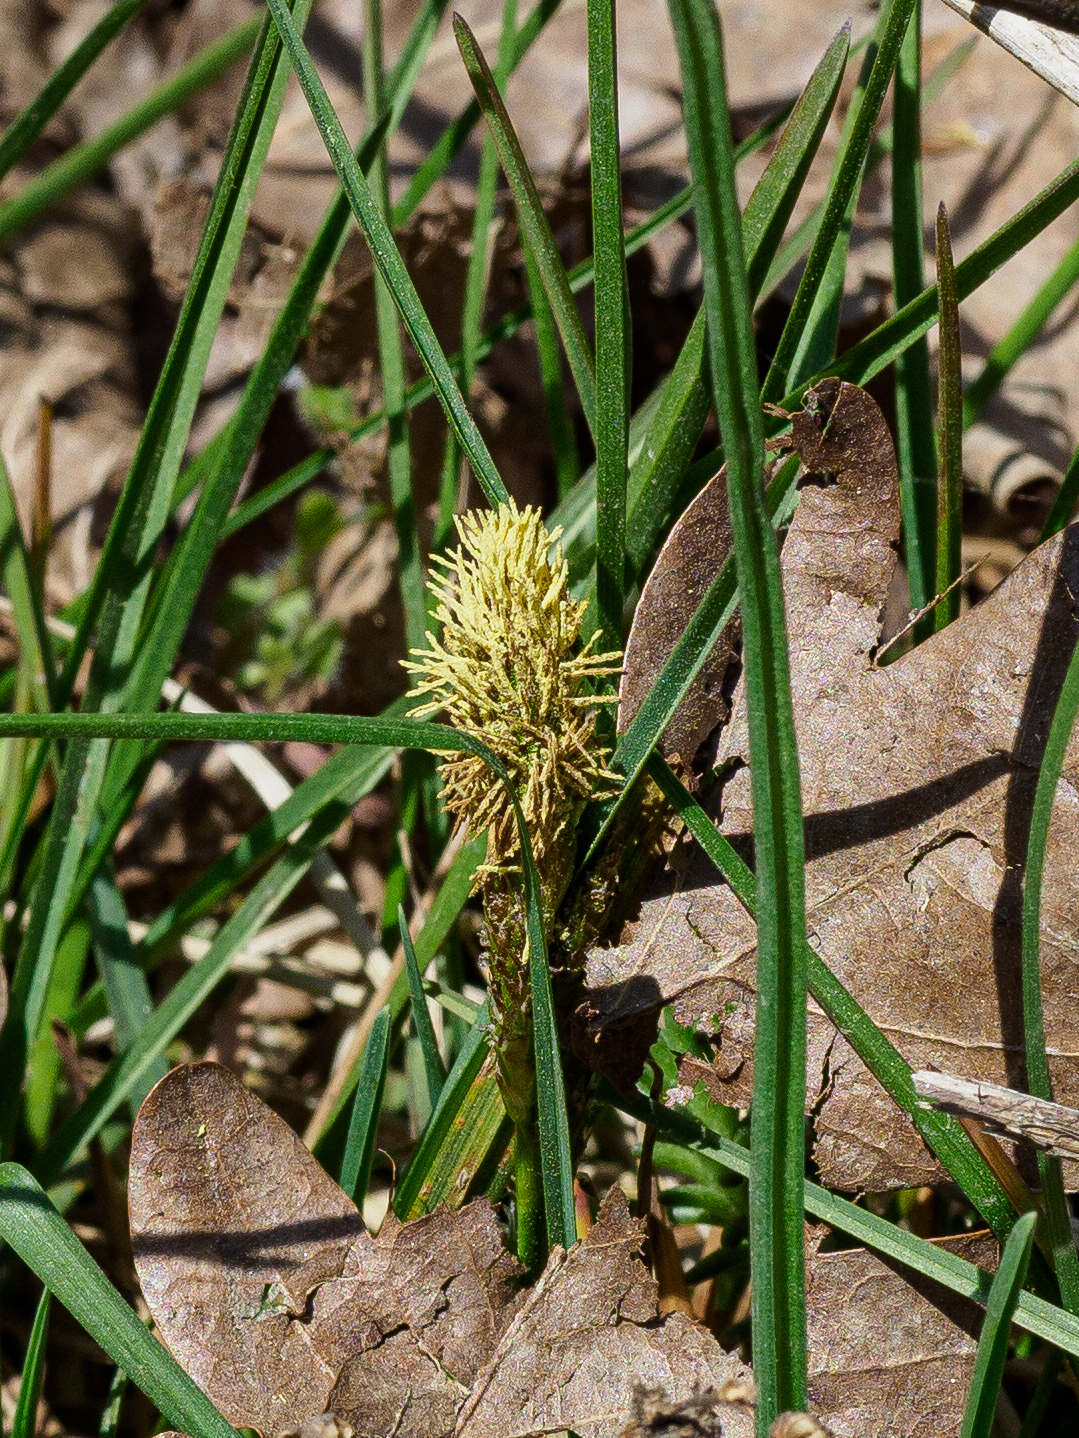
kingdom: Plantae
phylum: Tracheophyta
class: Liliopsida
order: Poales
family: Cyperaceae
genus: Carex
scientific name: Carex caryophyllea
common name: Spring sedge
